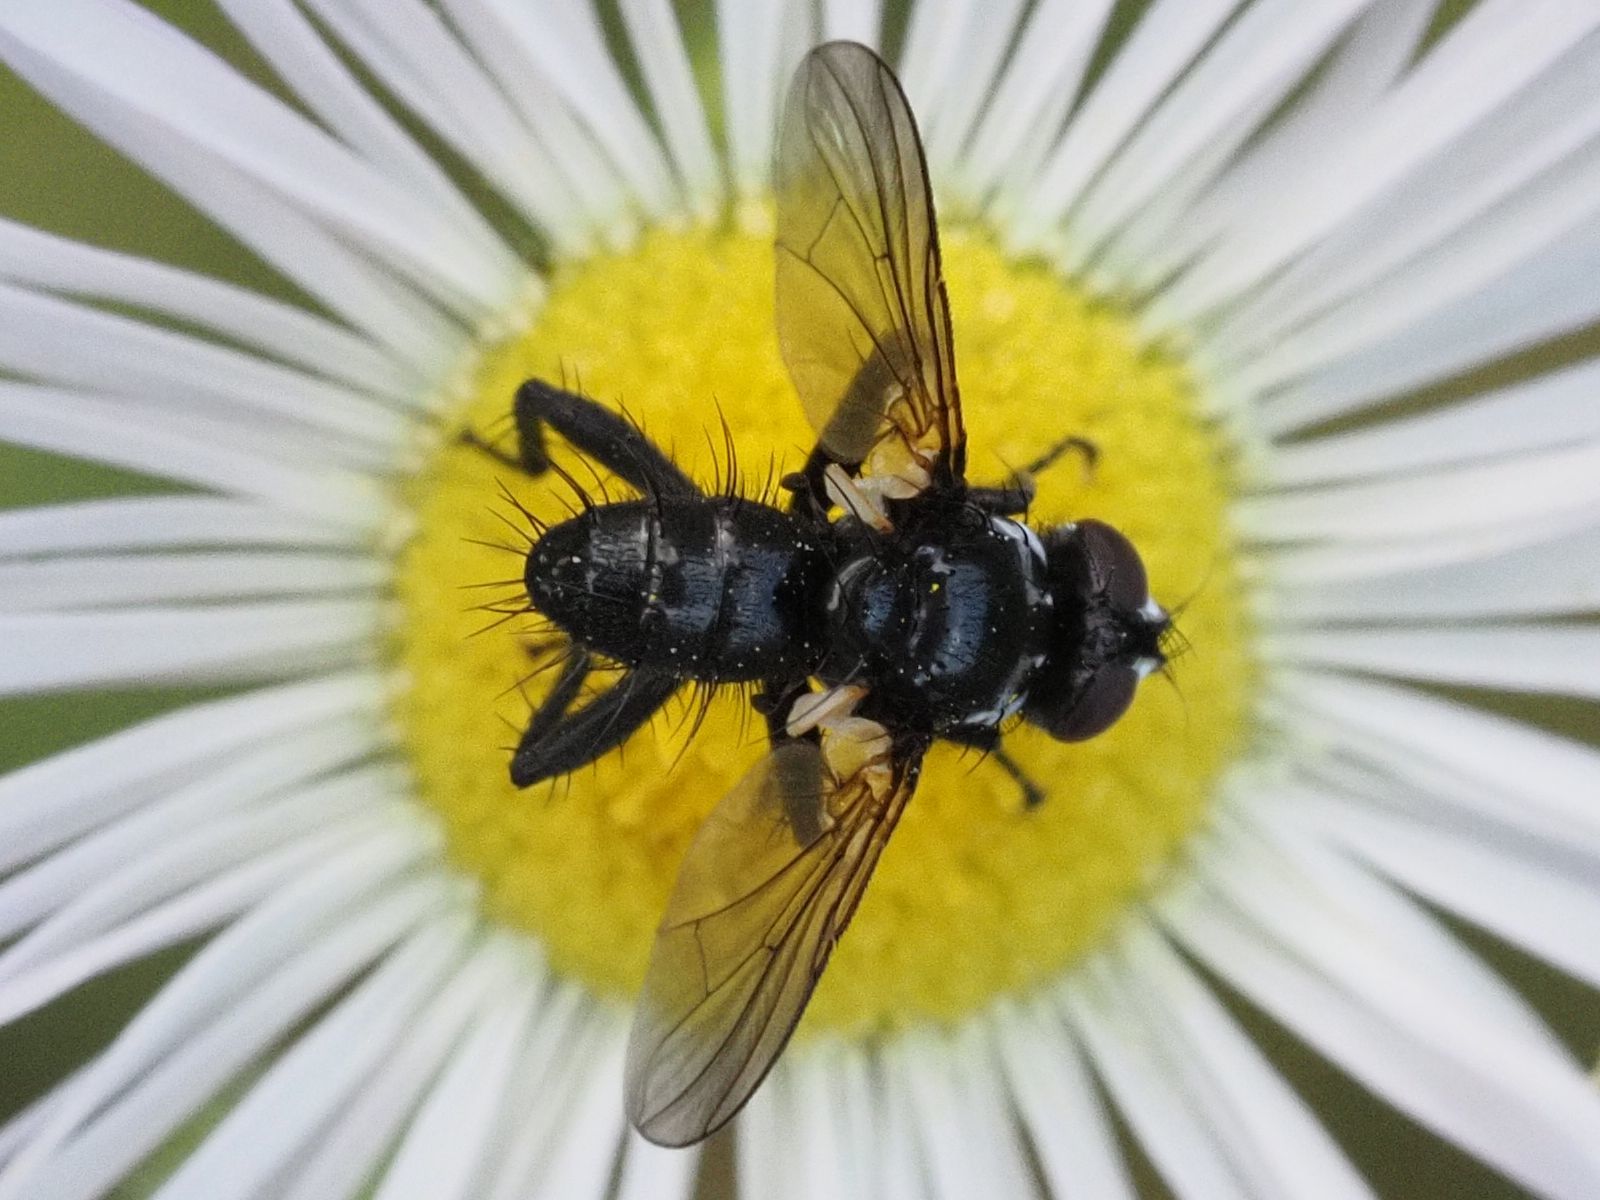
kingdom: Animalia
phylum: Arthropoda
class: Insecta
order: Diptera
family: Tachinidae
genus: Phania
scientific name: Phania funesta
